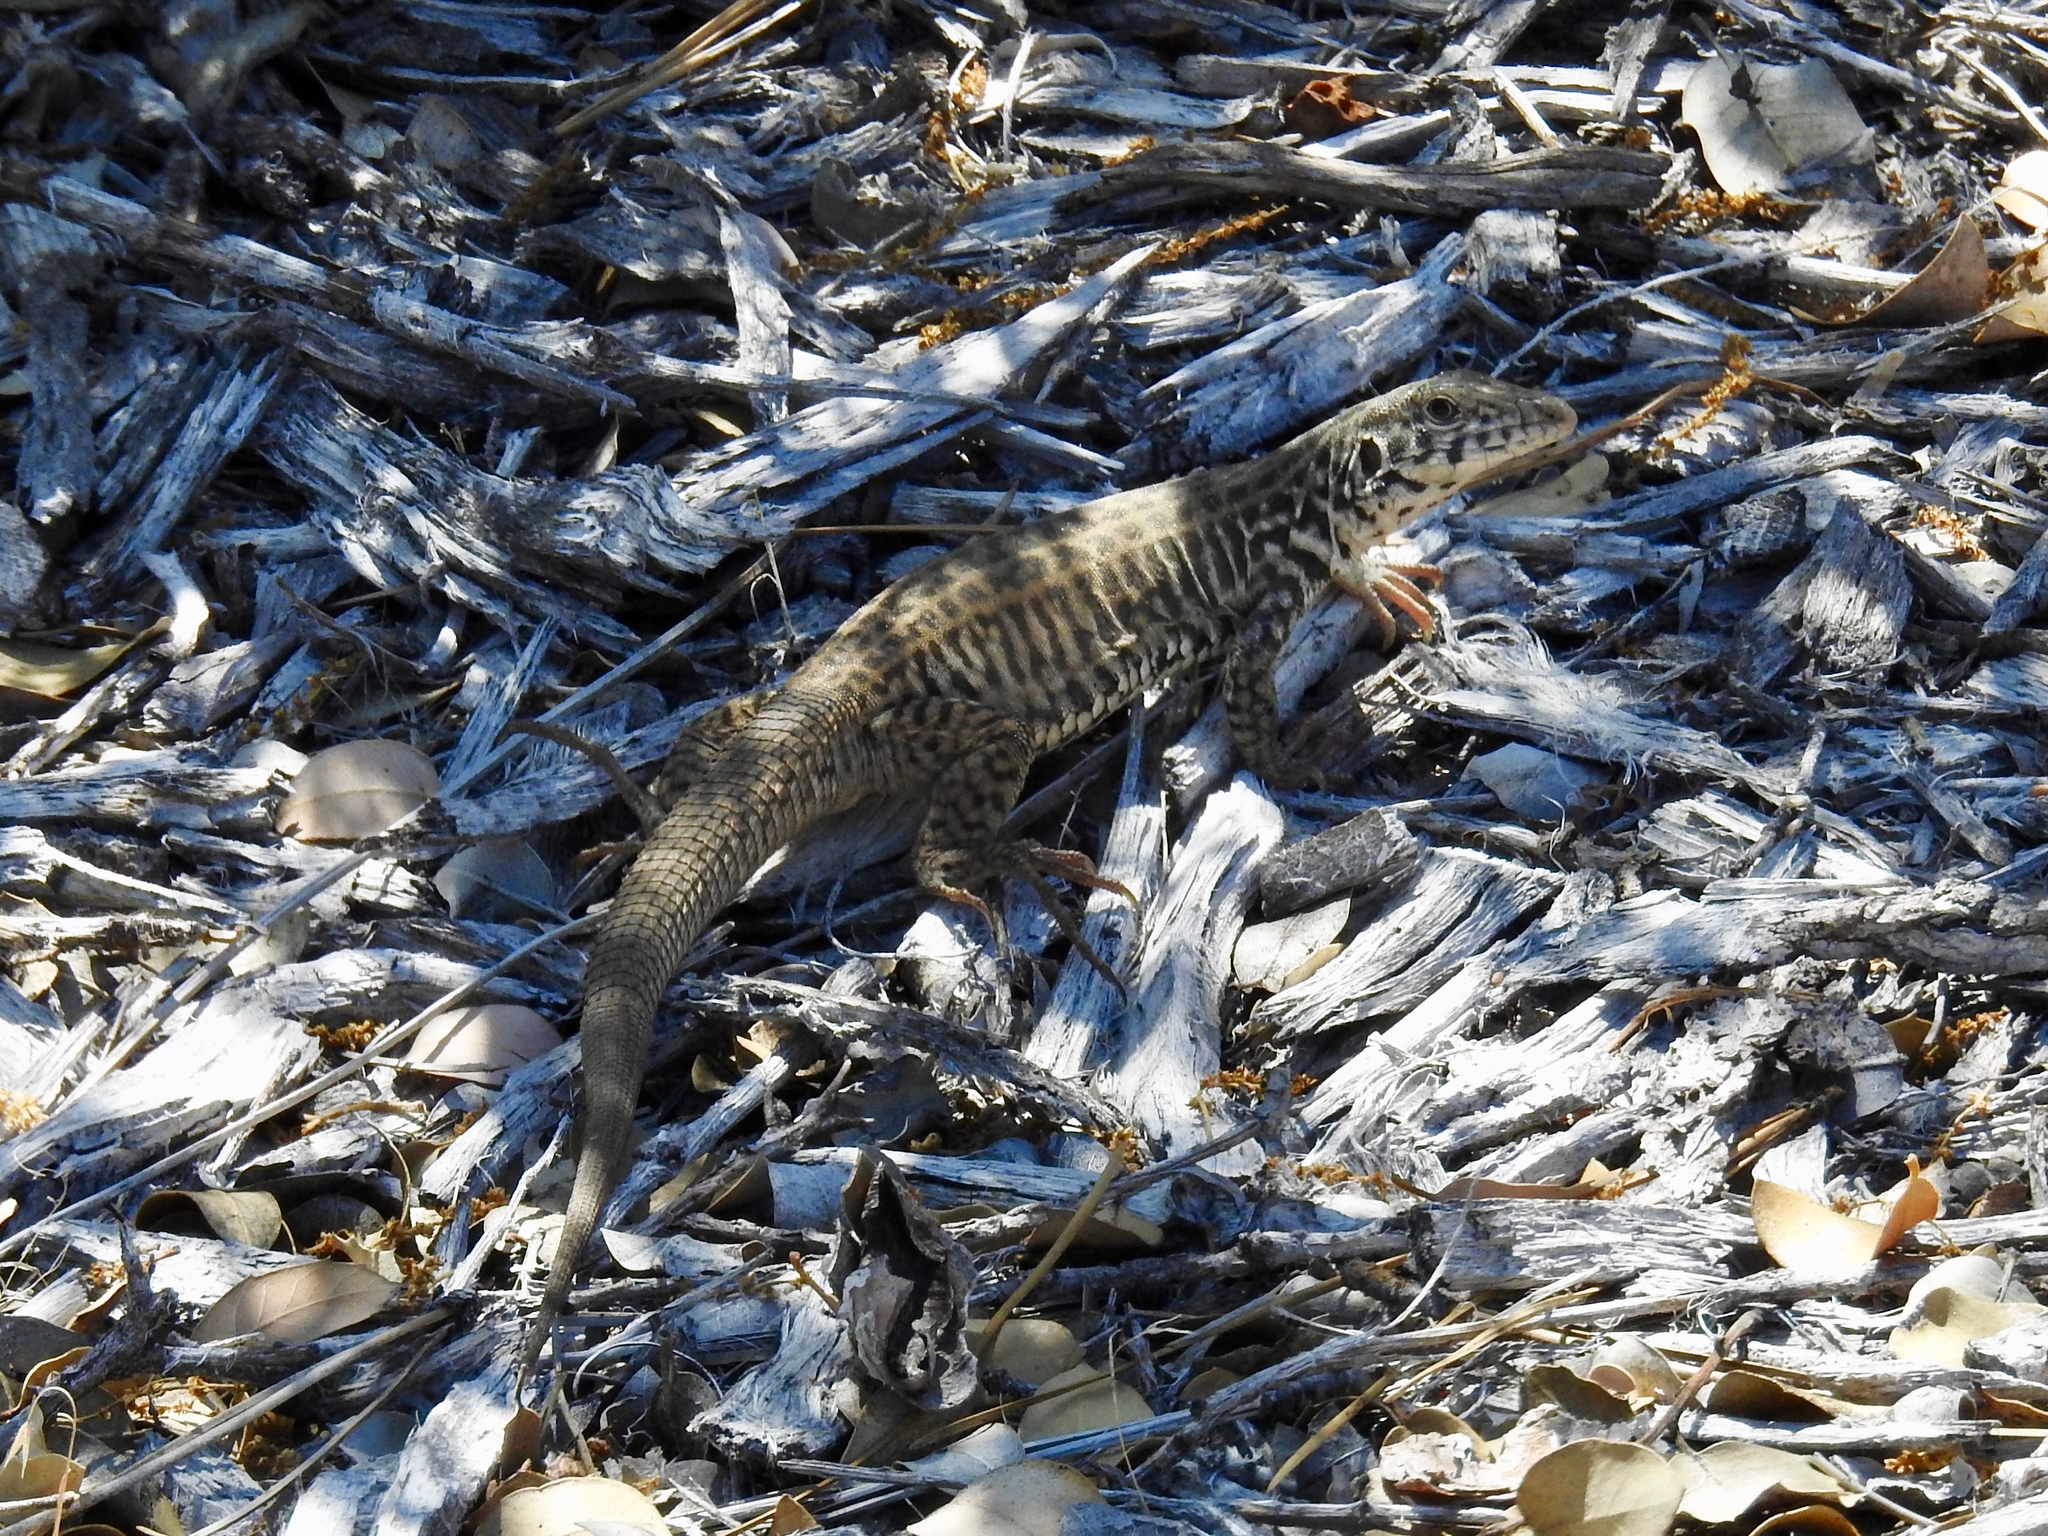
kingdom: Animalia
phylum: Chordata
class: Squamata
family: Teiidae
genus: Aspidoscelis
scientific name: Aspidoscelis tigris
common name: Tiger whiptail
